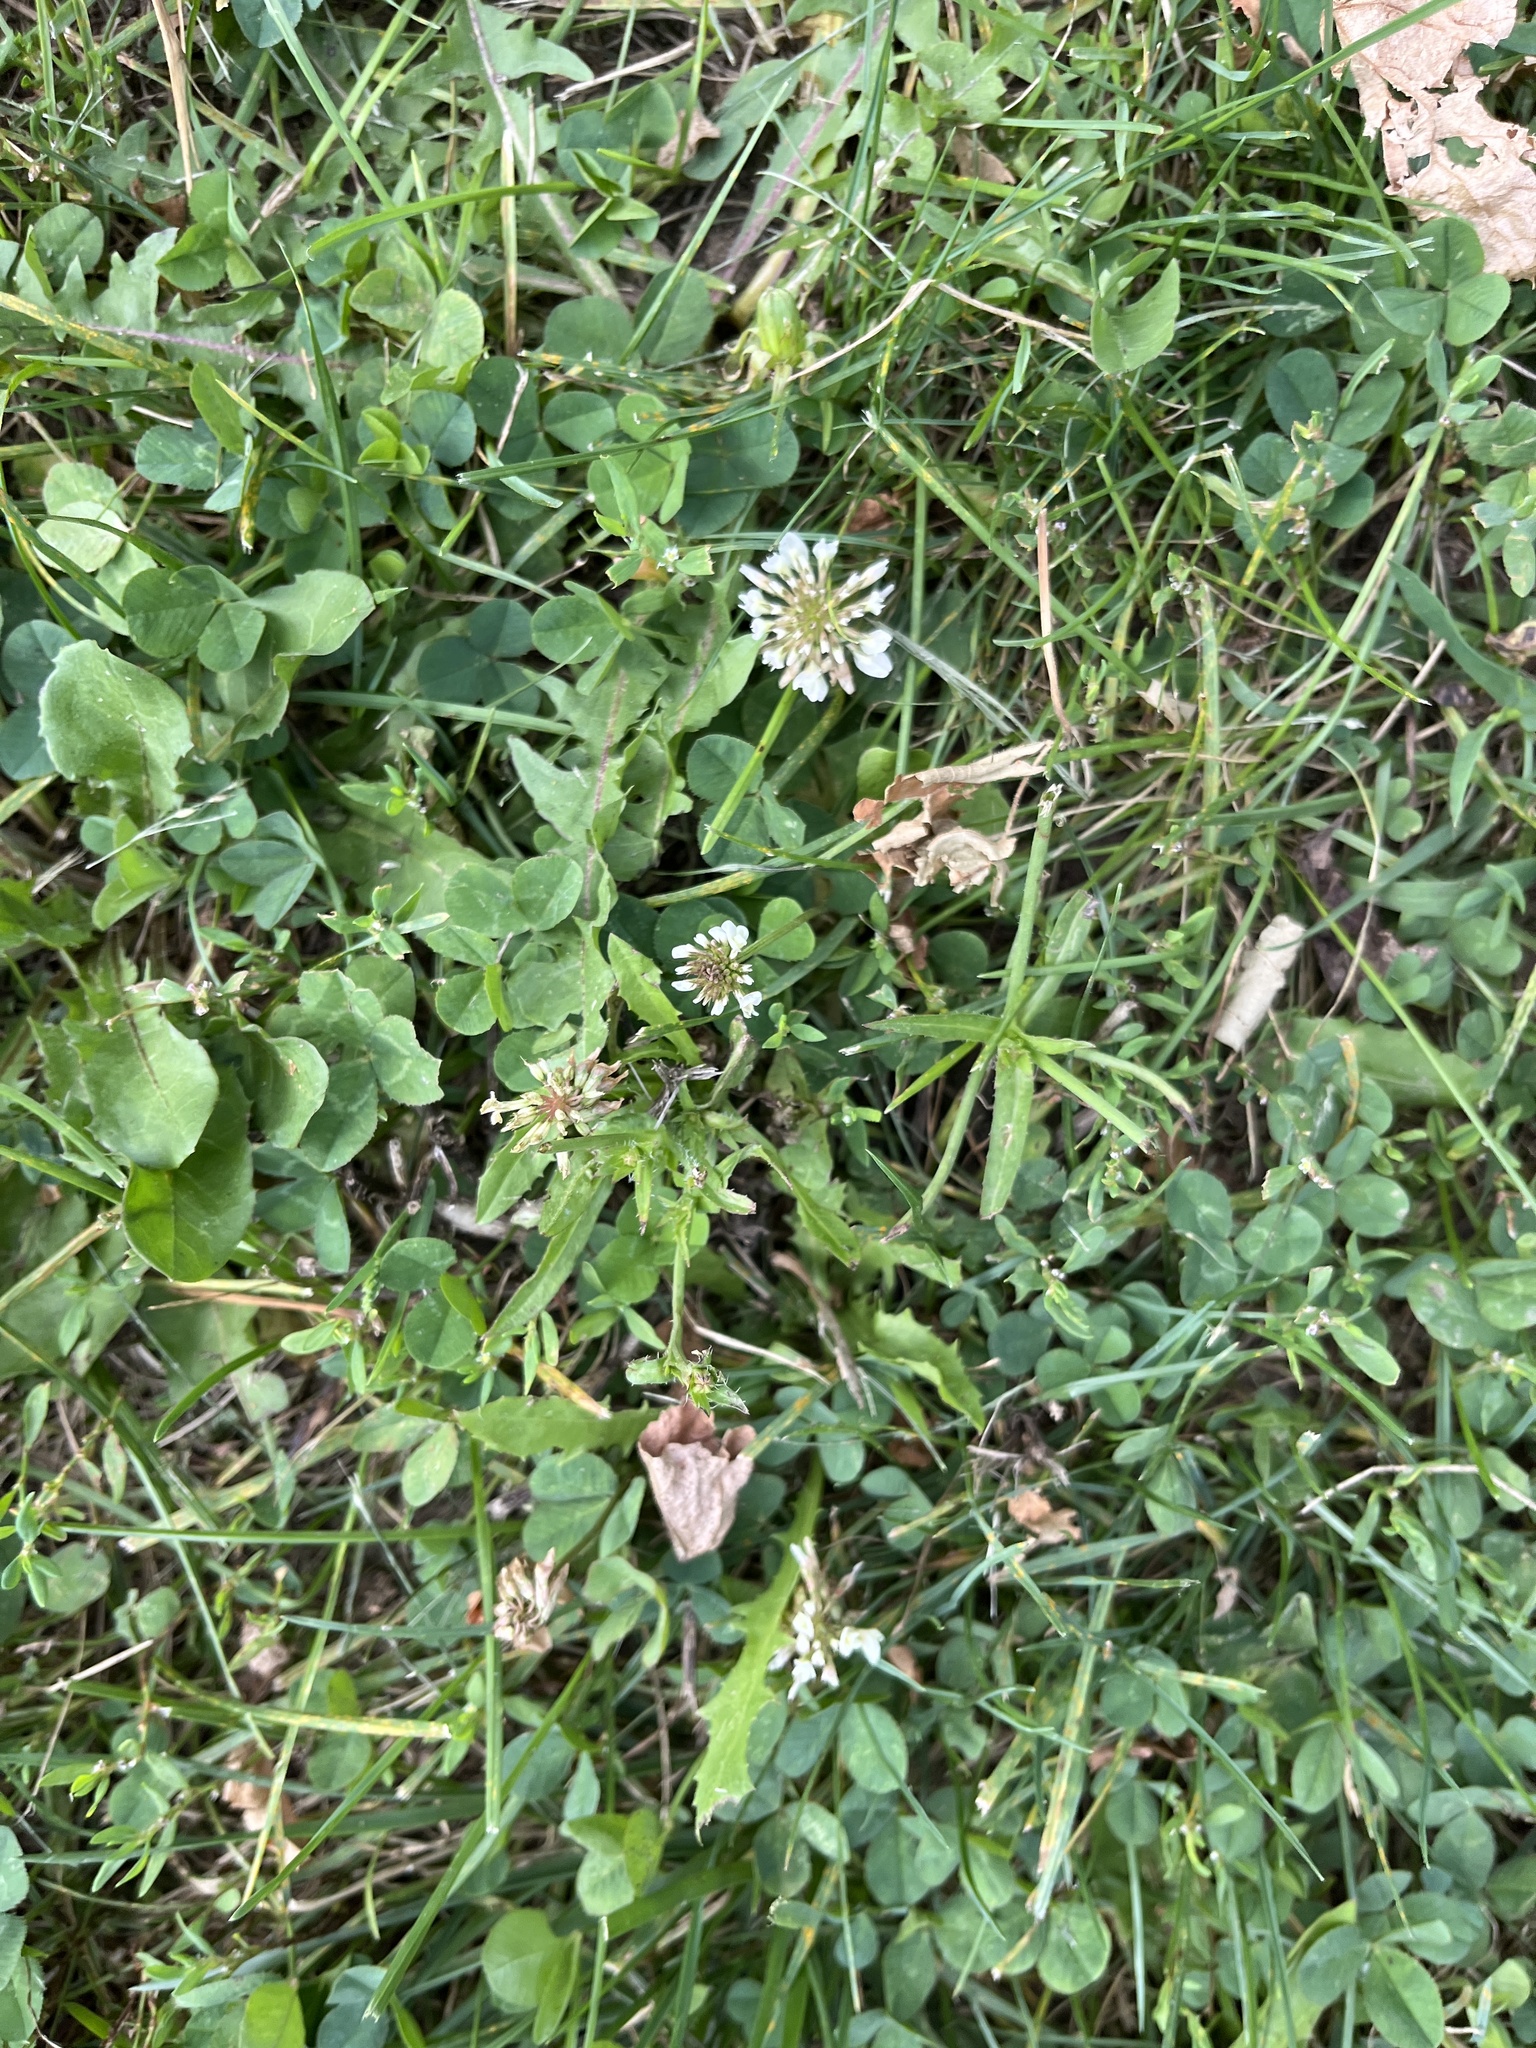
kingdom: Plantae
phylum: Tracheophyta
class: Magnoliopsida
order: Fabales
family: Fabaceae
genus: Trifolium
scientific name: Trifolium repens
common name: White clover
